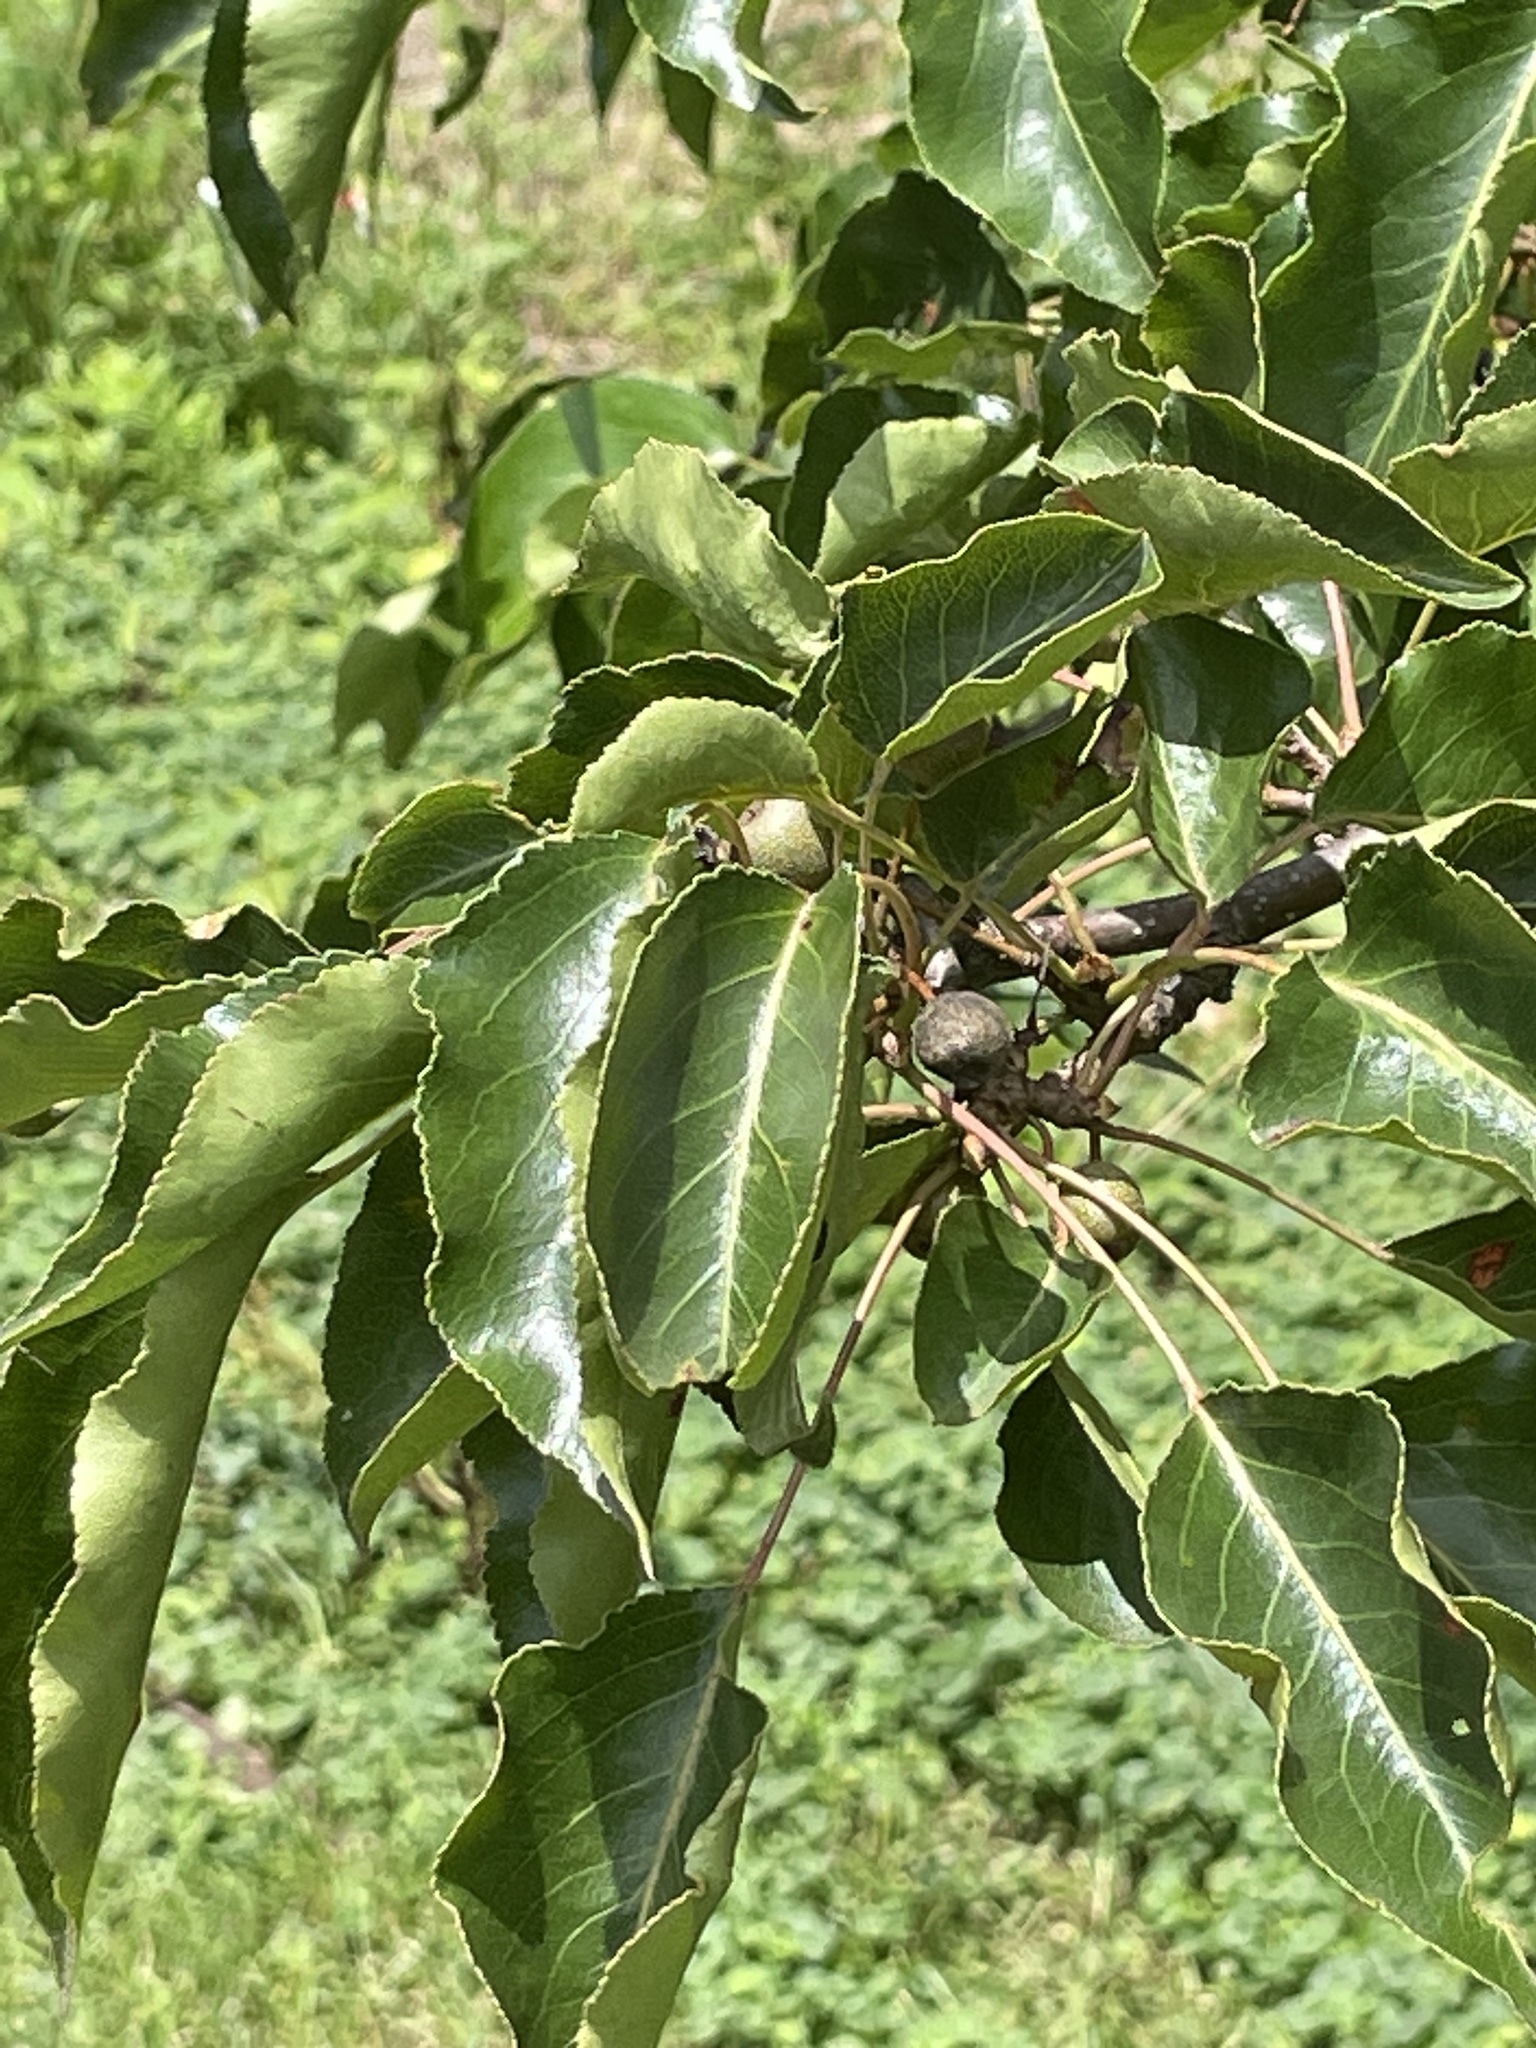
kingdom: Plantae
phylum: Tracheophyta
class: Magnoliopsida
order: Rosales
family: Rosaceae
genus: Pyrus
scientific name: Pyrus calleryana
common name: Callery pear
